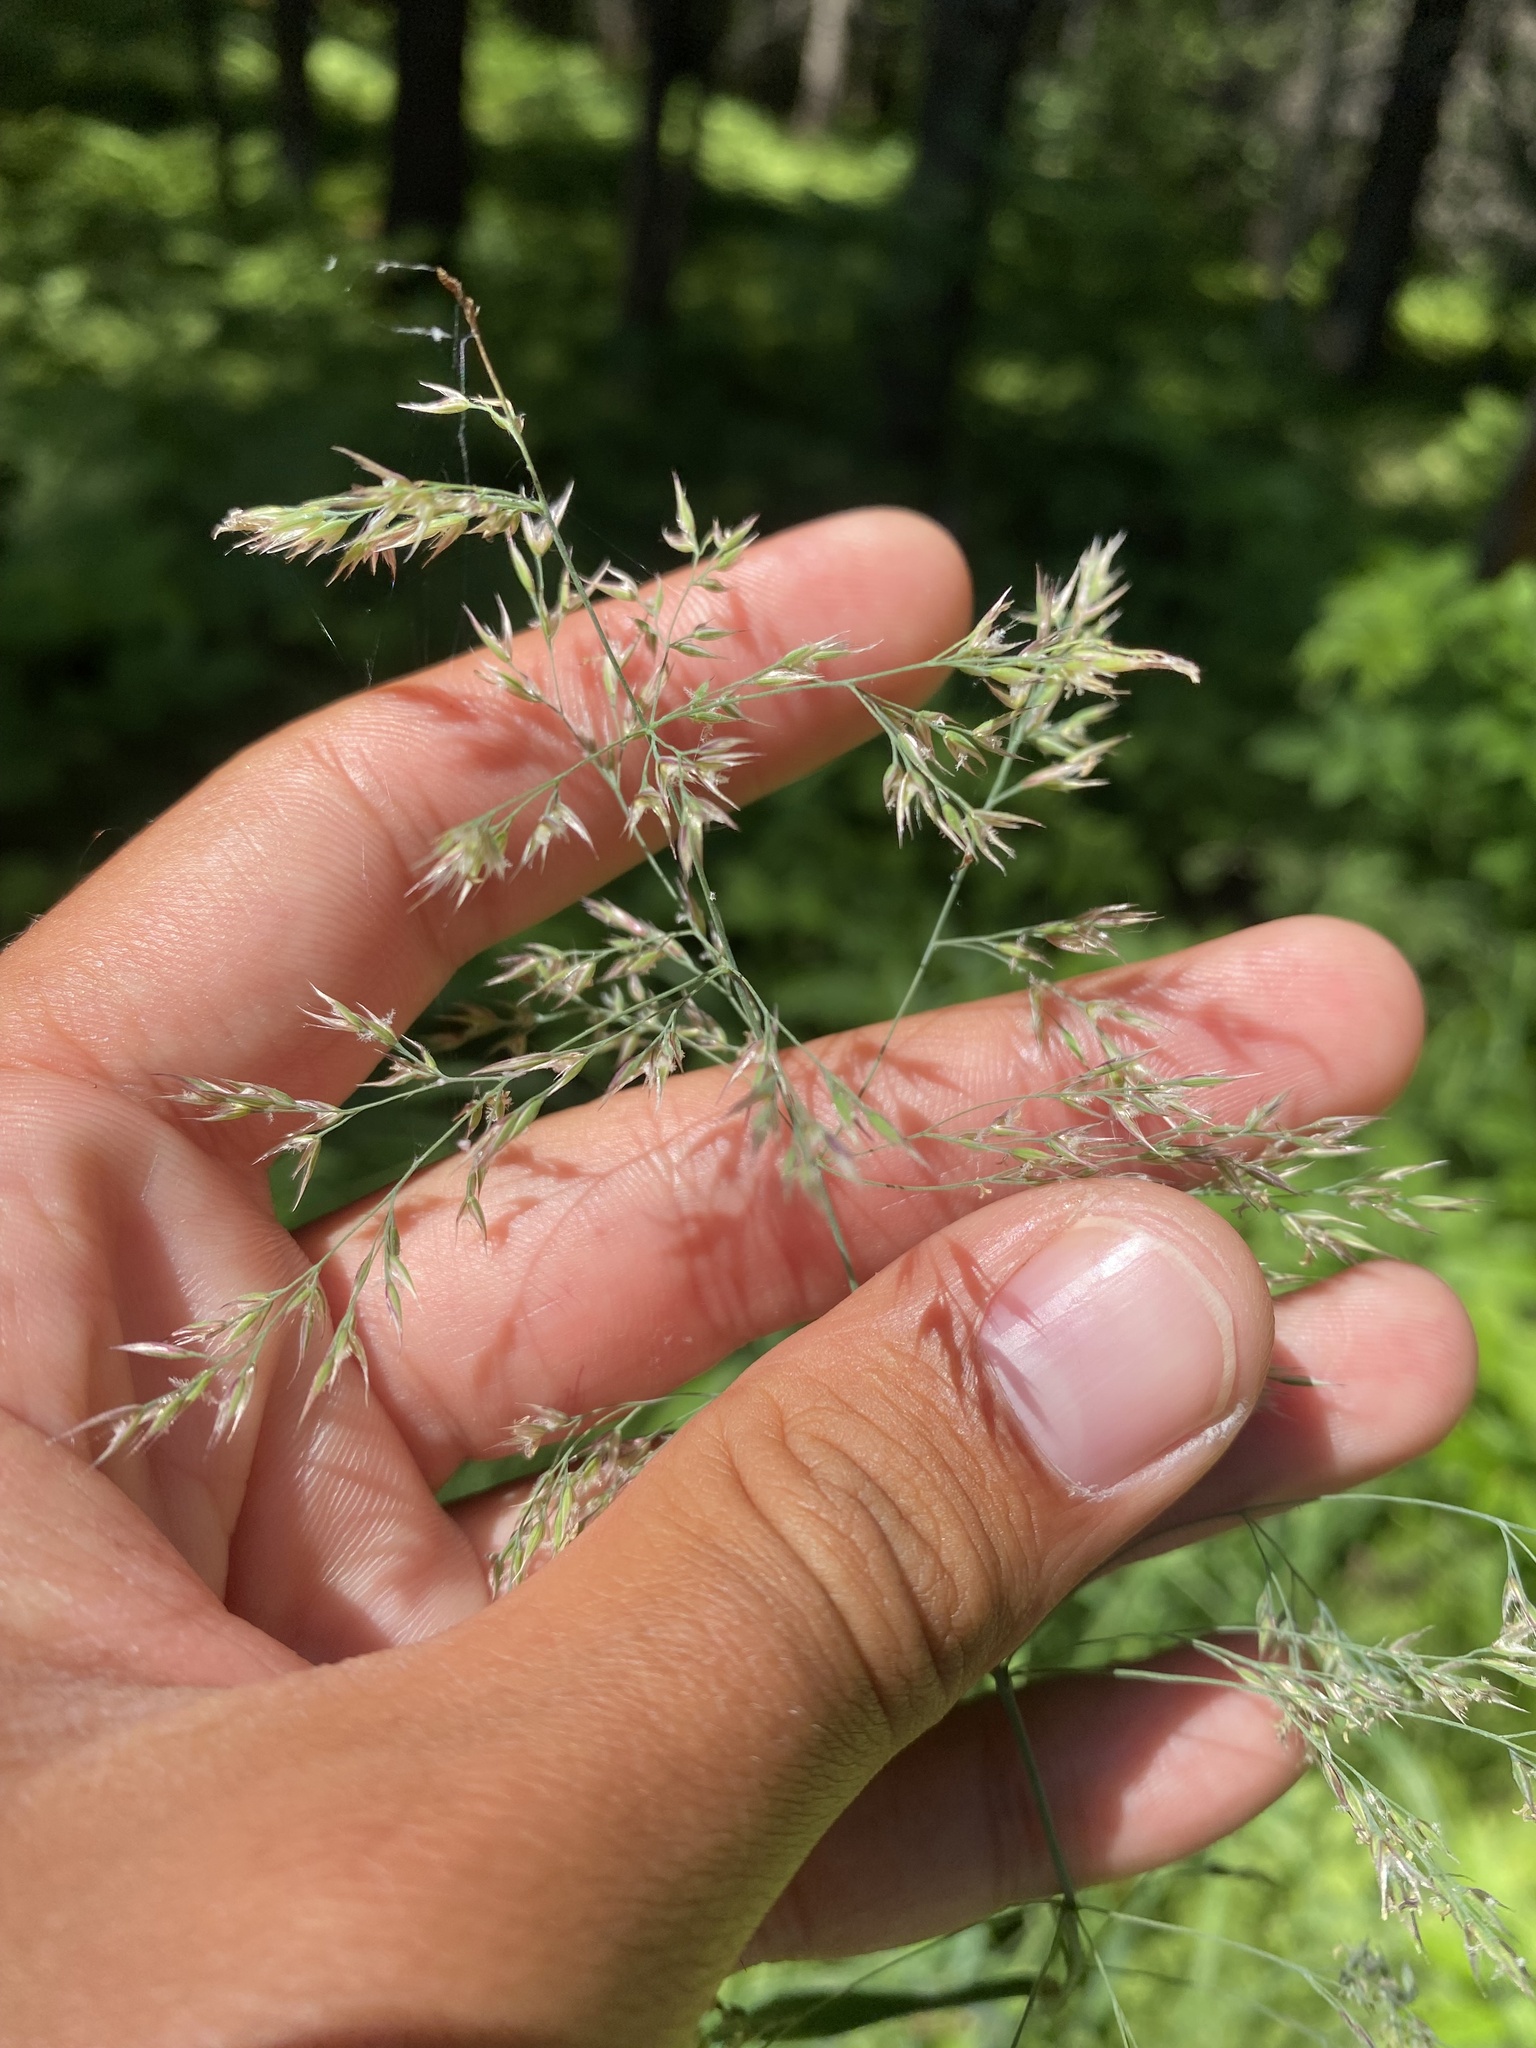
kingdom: Plantae
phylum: Tracheophyta
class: Liliopsida
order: Poales
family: Poaceae
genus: Calamagrostis
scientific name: Calamagrostis purpurea
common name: Scandinavian small-reed
